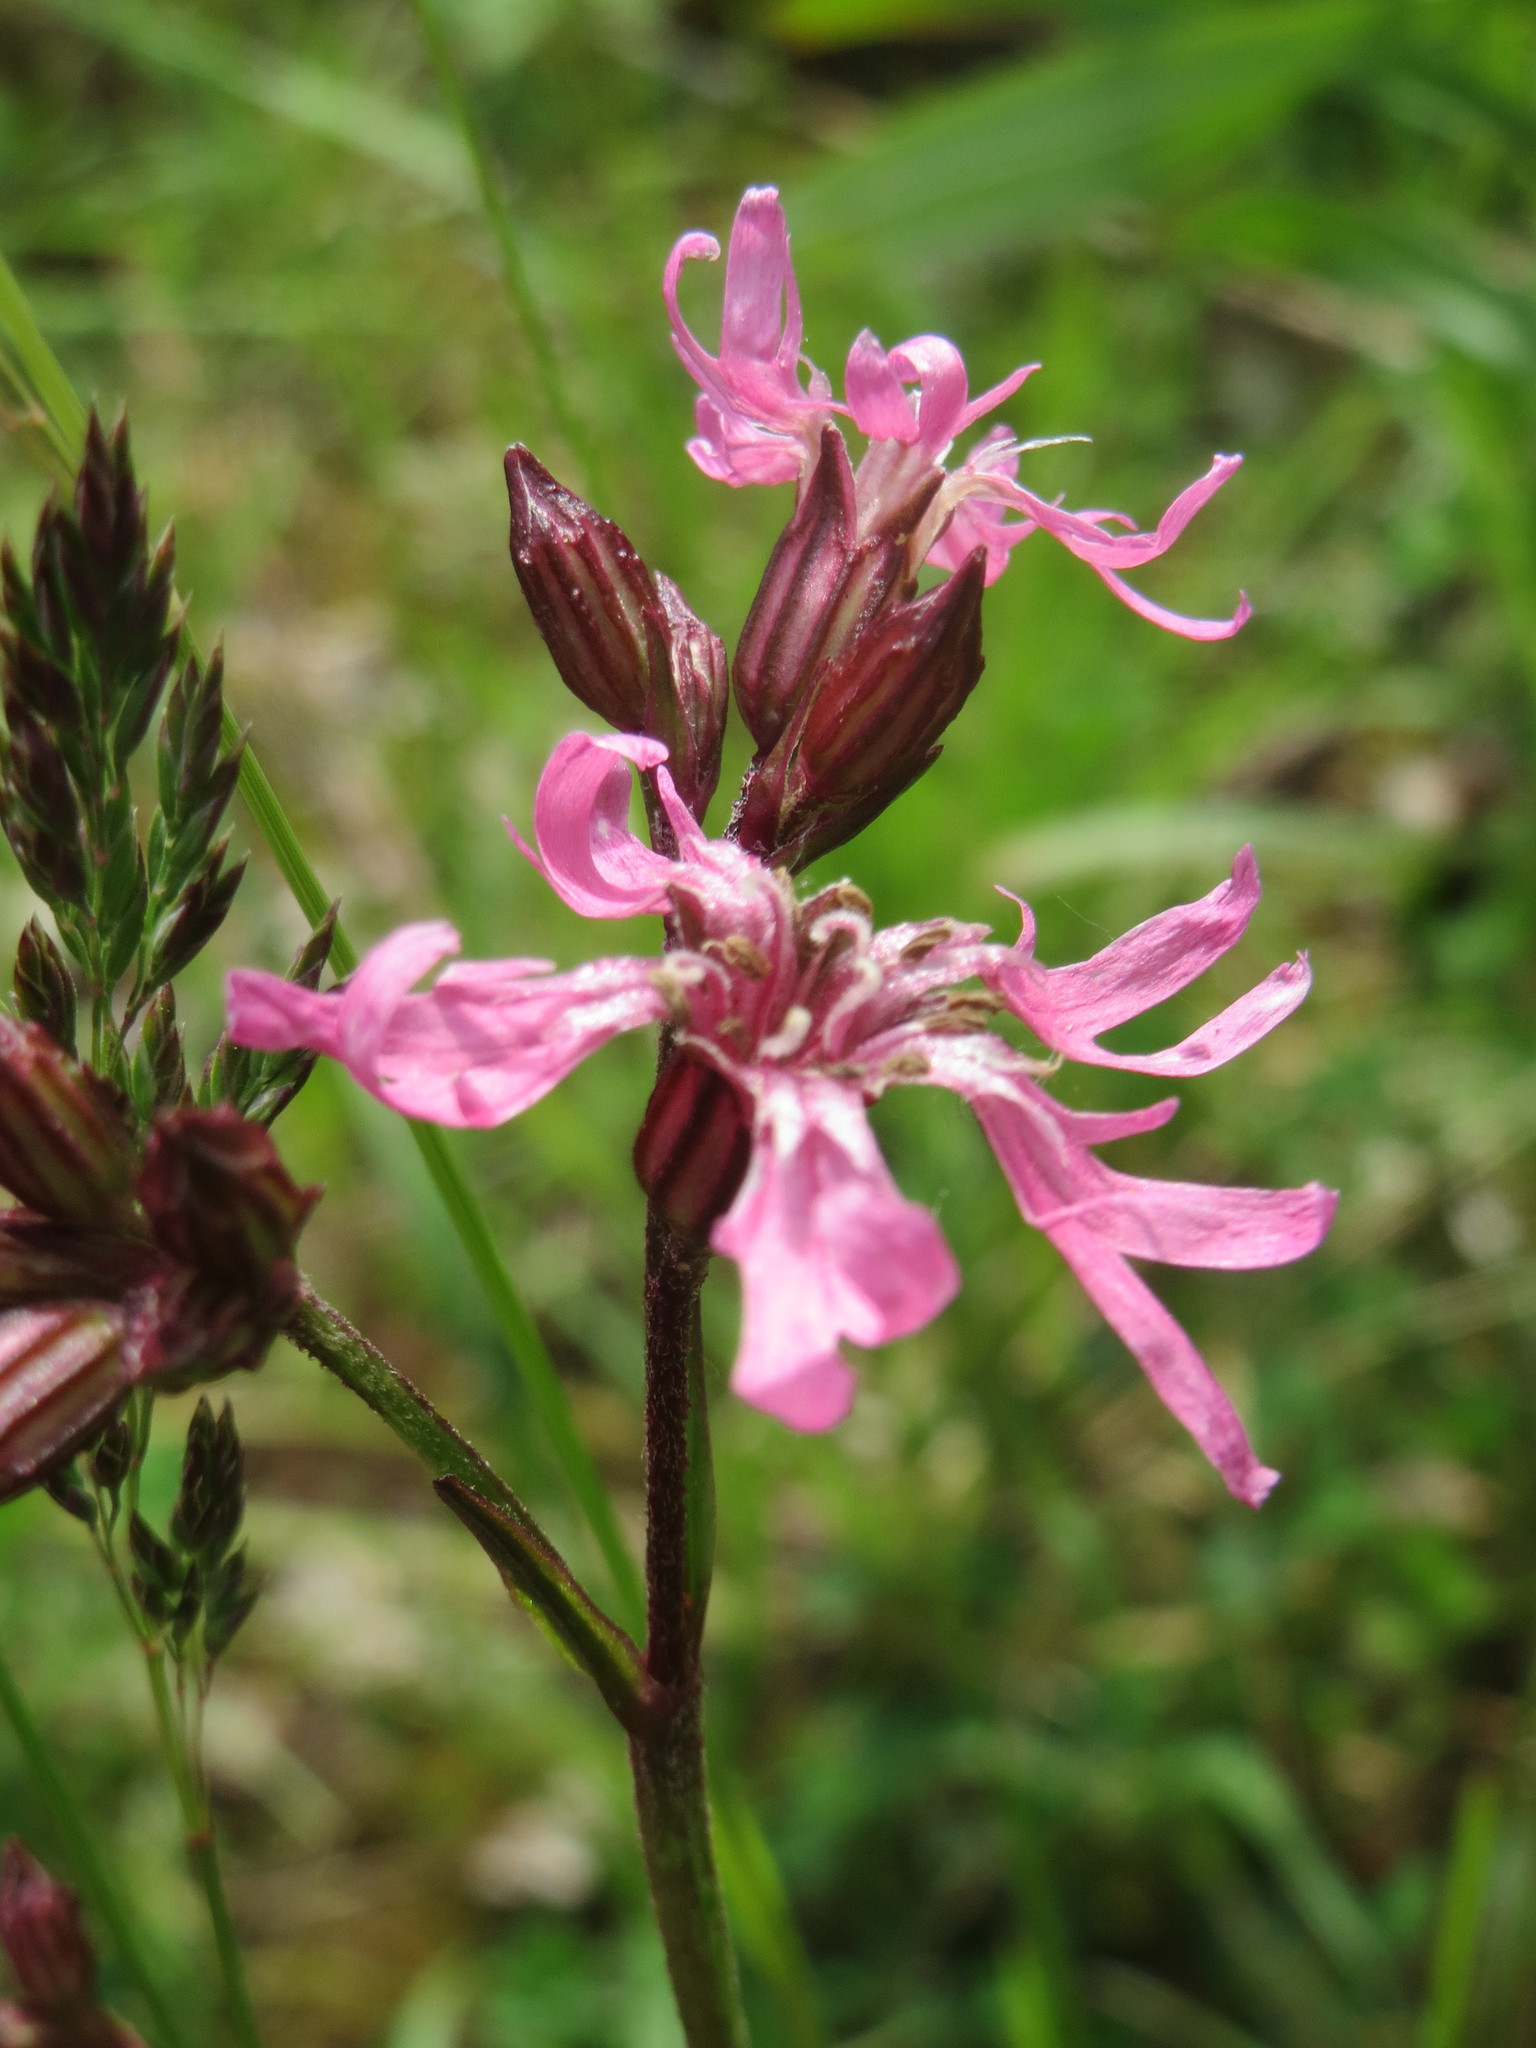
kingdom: Plantae
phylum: Tracheophyta
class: Magnoliopsida
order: Caryophyllales
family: Caryophyllaceae
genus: Silene
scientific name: Silene flos-cuculi
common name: Ragged-robin
